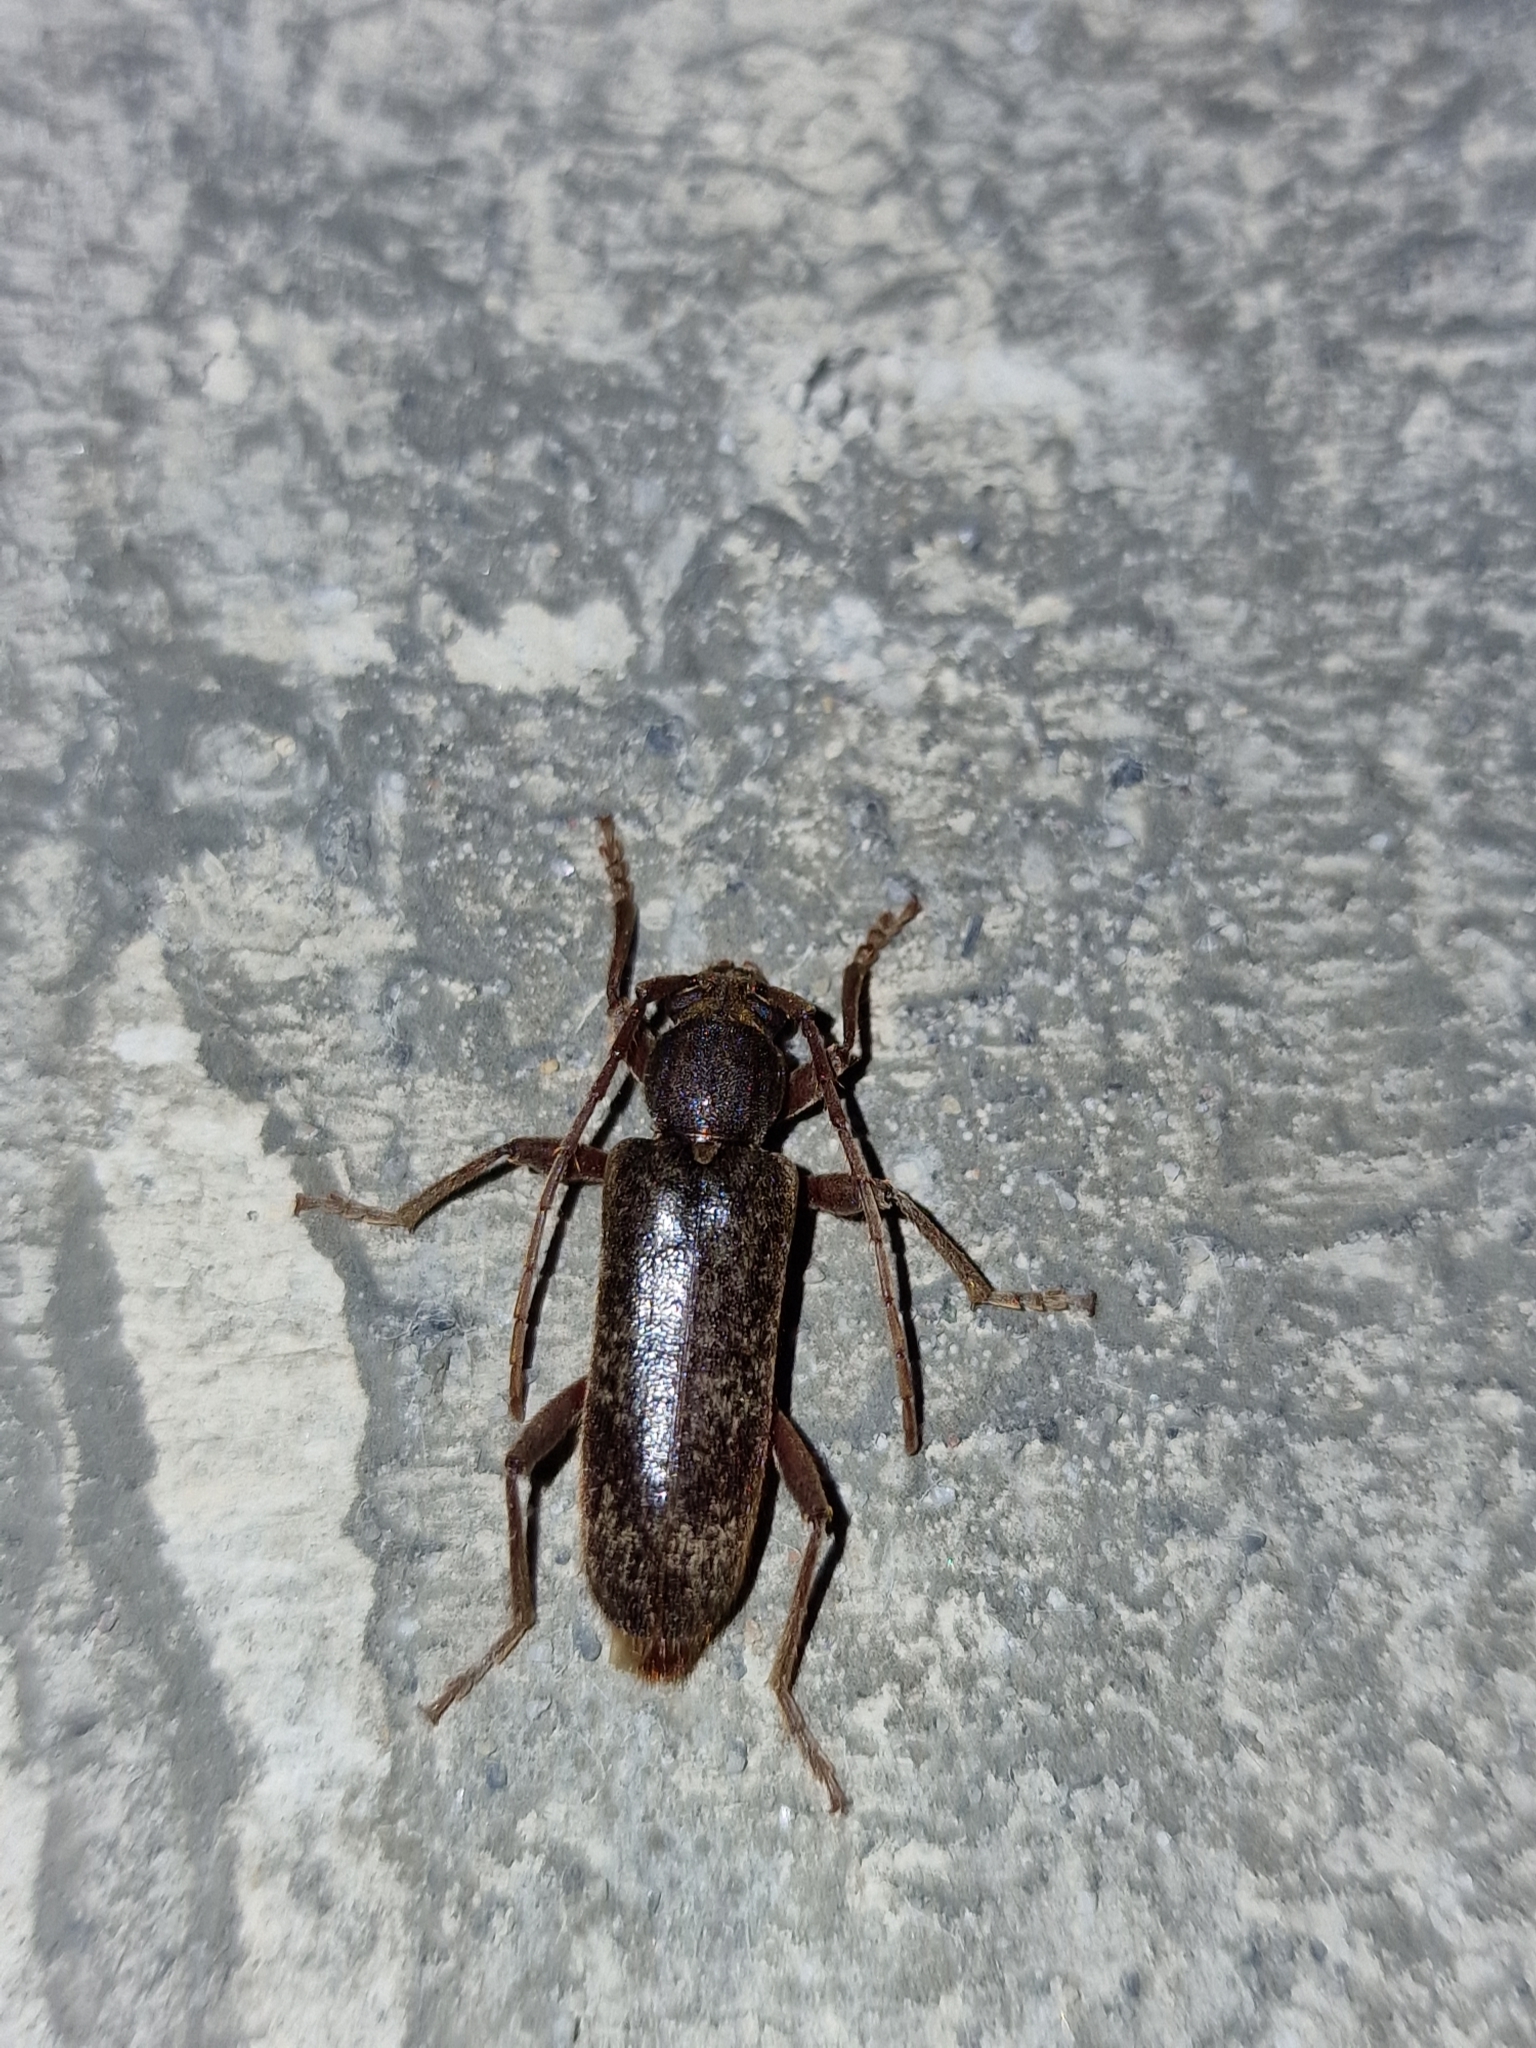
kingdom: Animalia
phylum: Arthropoda
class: Insecta
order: Coleoptera
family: Cerambycidae
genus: Trichoferus
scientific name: Trichoferus campestris
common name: Velvet long horned beetle
